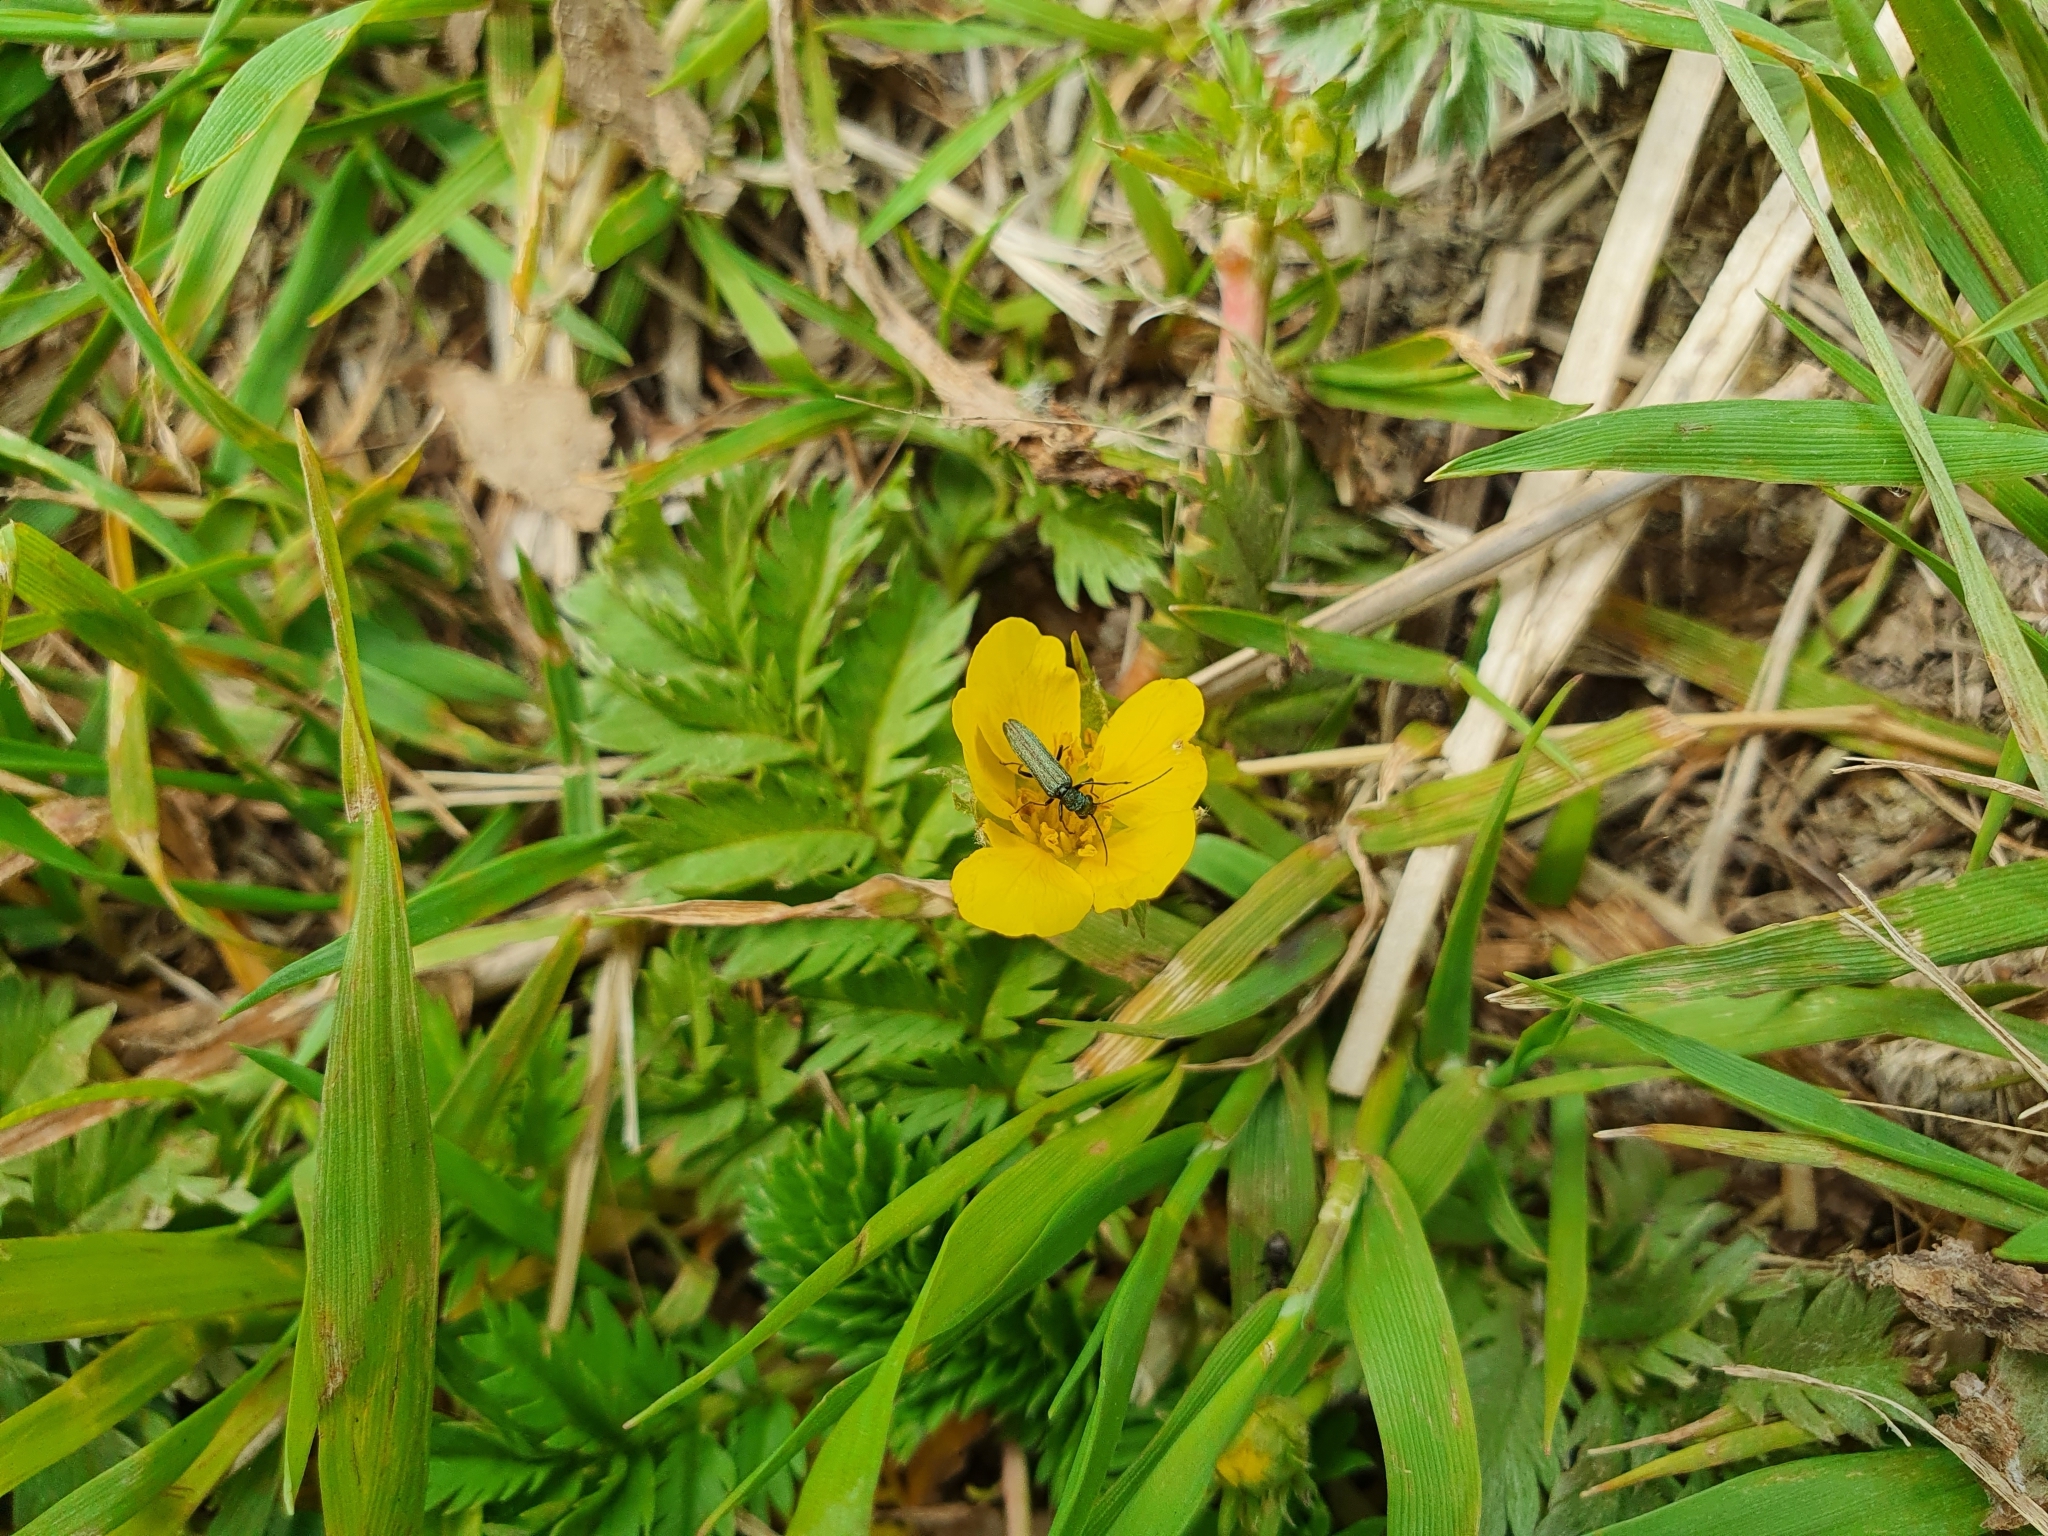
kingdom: Plantae
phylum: Tracheophyta
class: Magnoliopsida
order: Rosales
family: Rosaceae
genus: Argentina
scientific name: Argentina anserina
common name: Common silverweed
